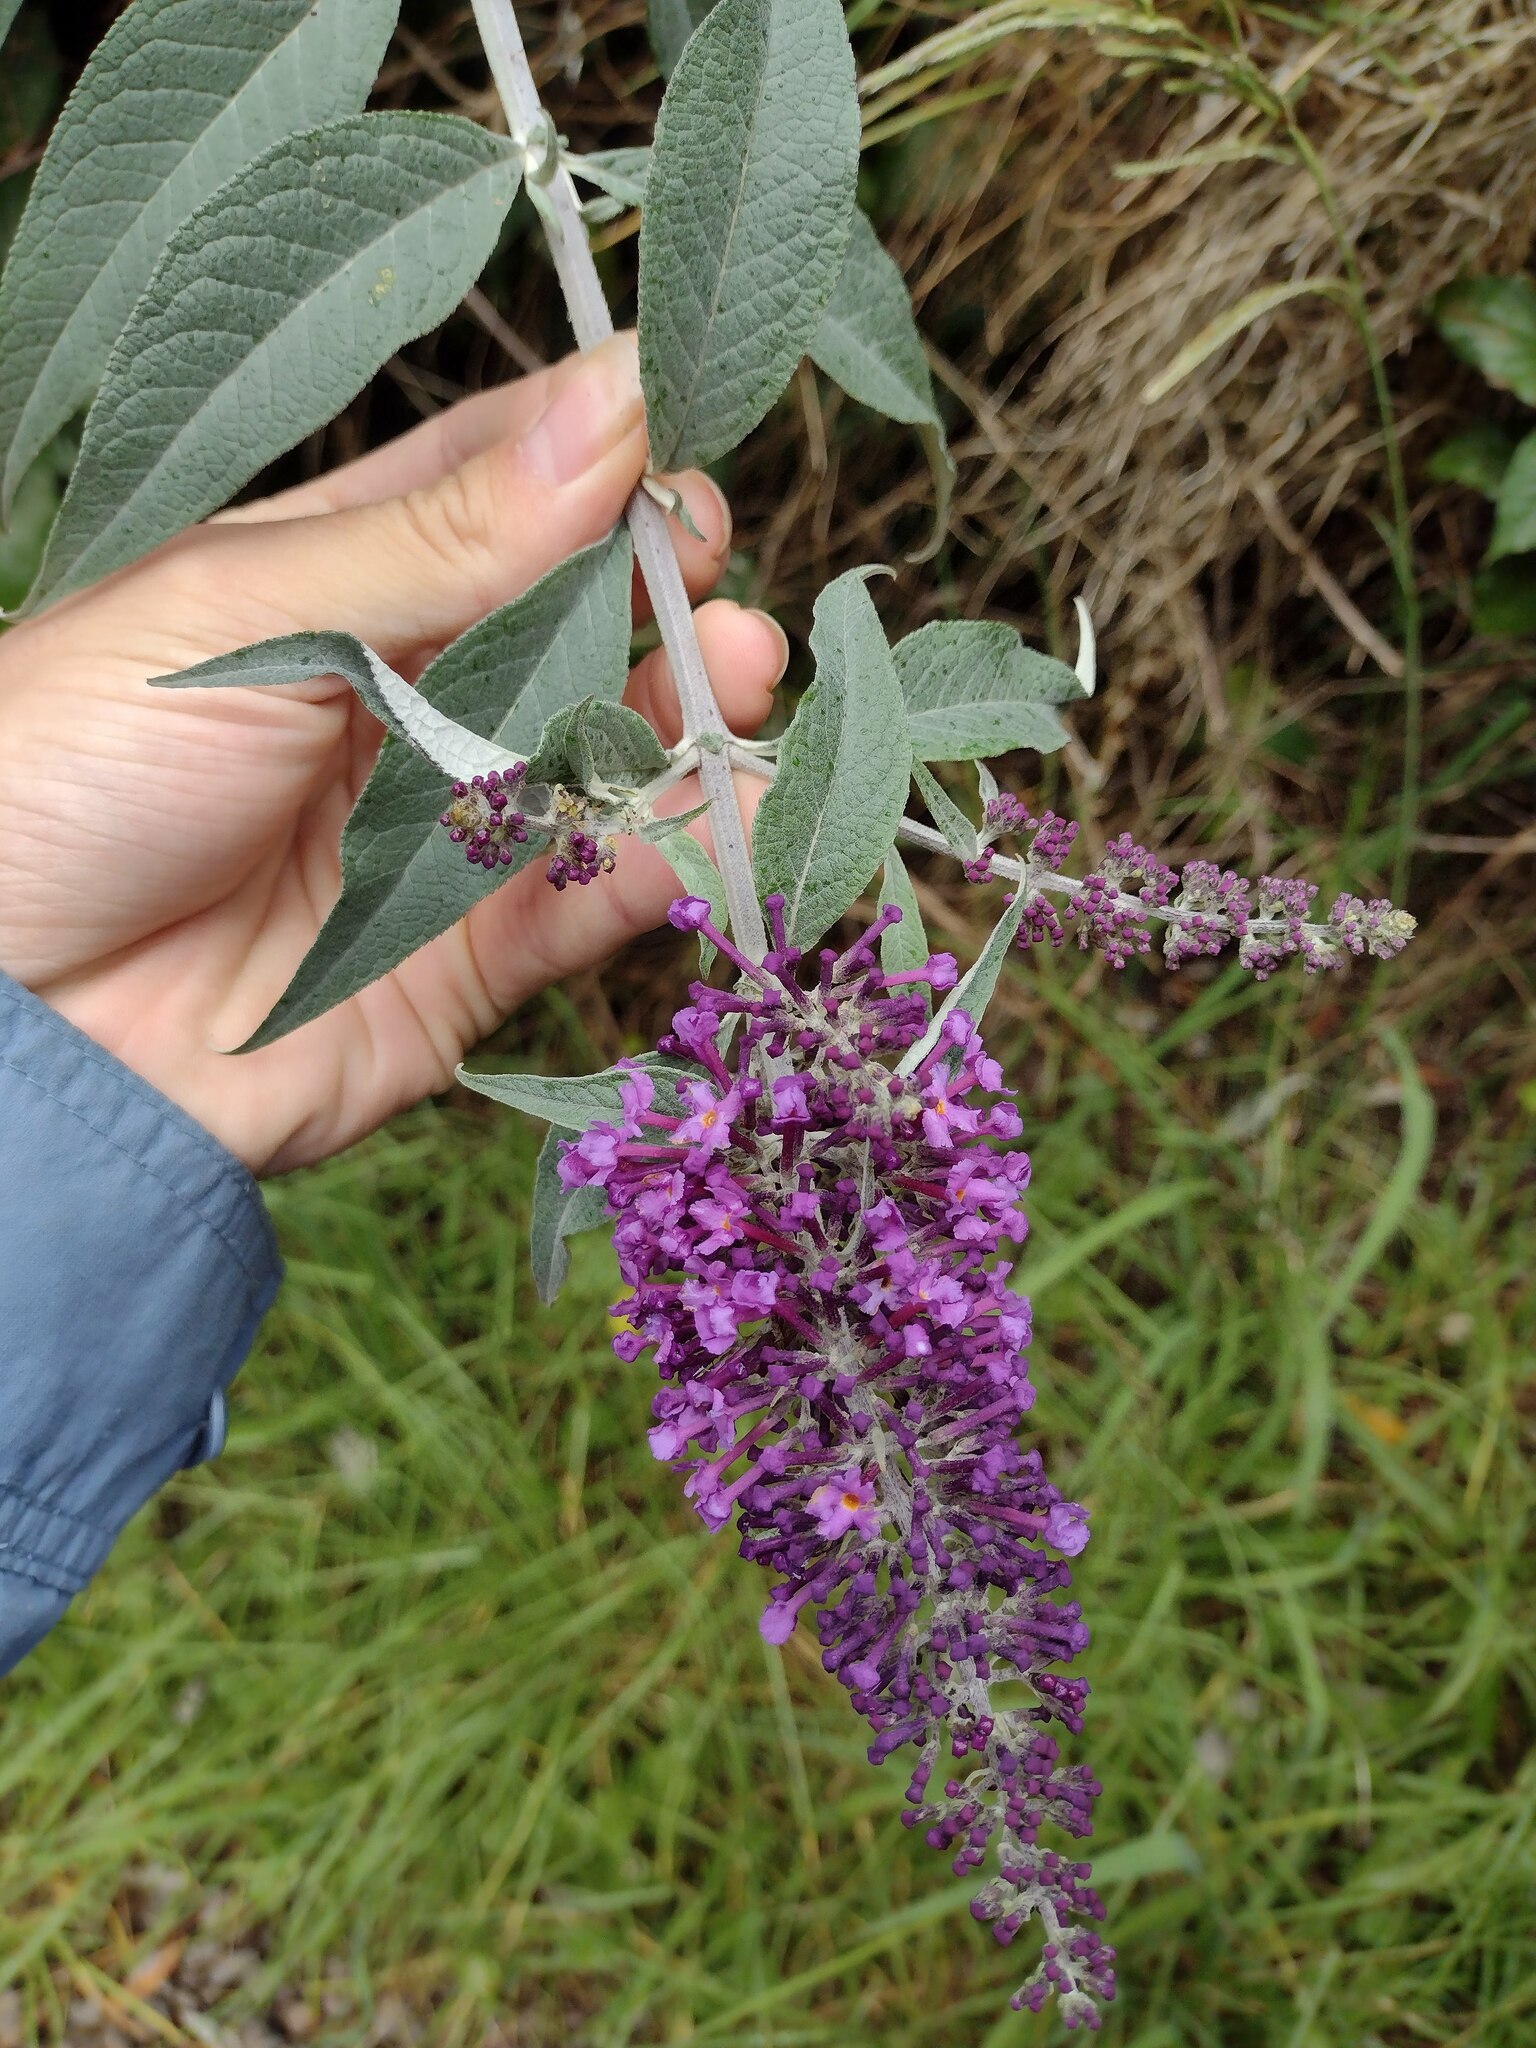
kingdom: Plantae
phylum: Tracheophyta
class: Magnoliopsida
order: Lamiales
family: Scrophulariaceae
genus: Buddleja
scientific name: Buddleja davidii
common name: Butterfly-bush
